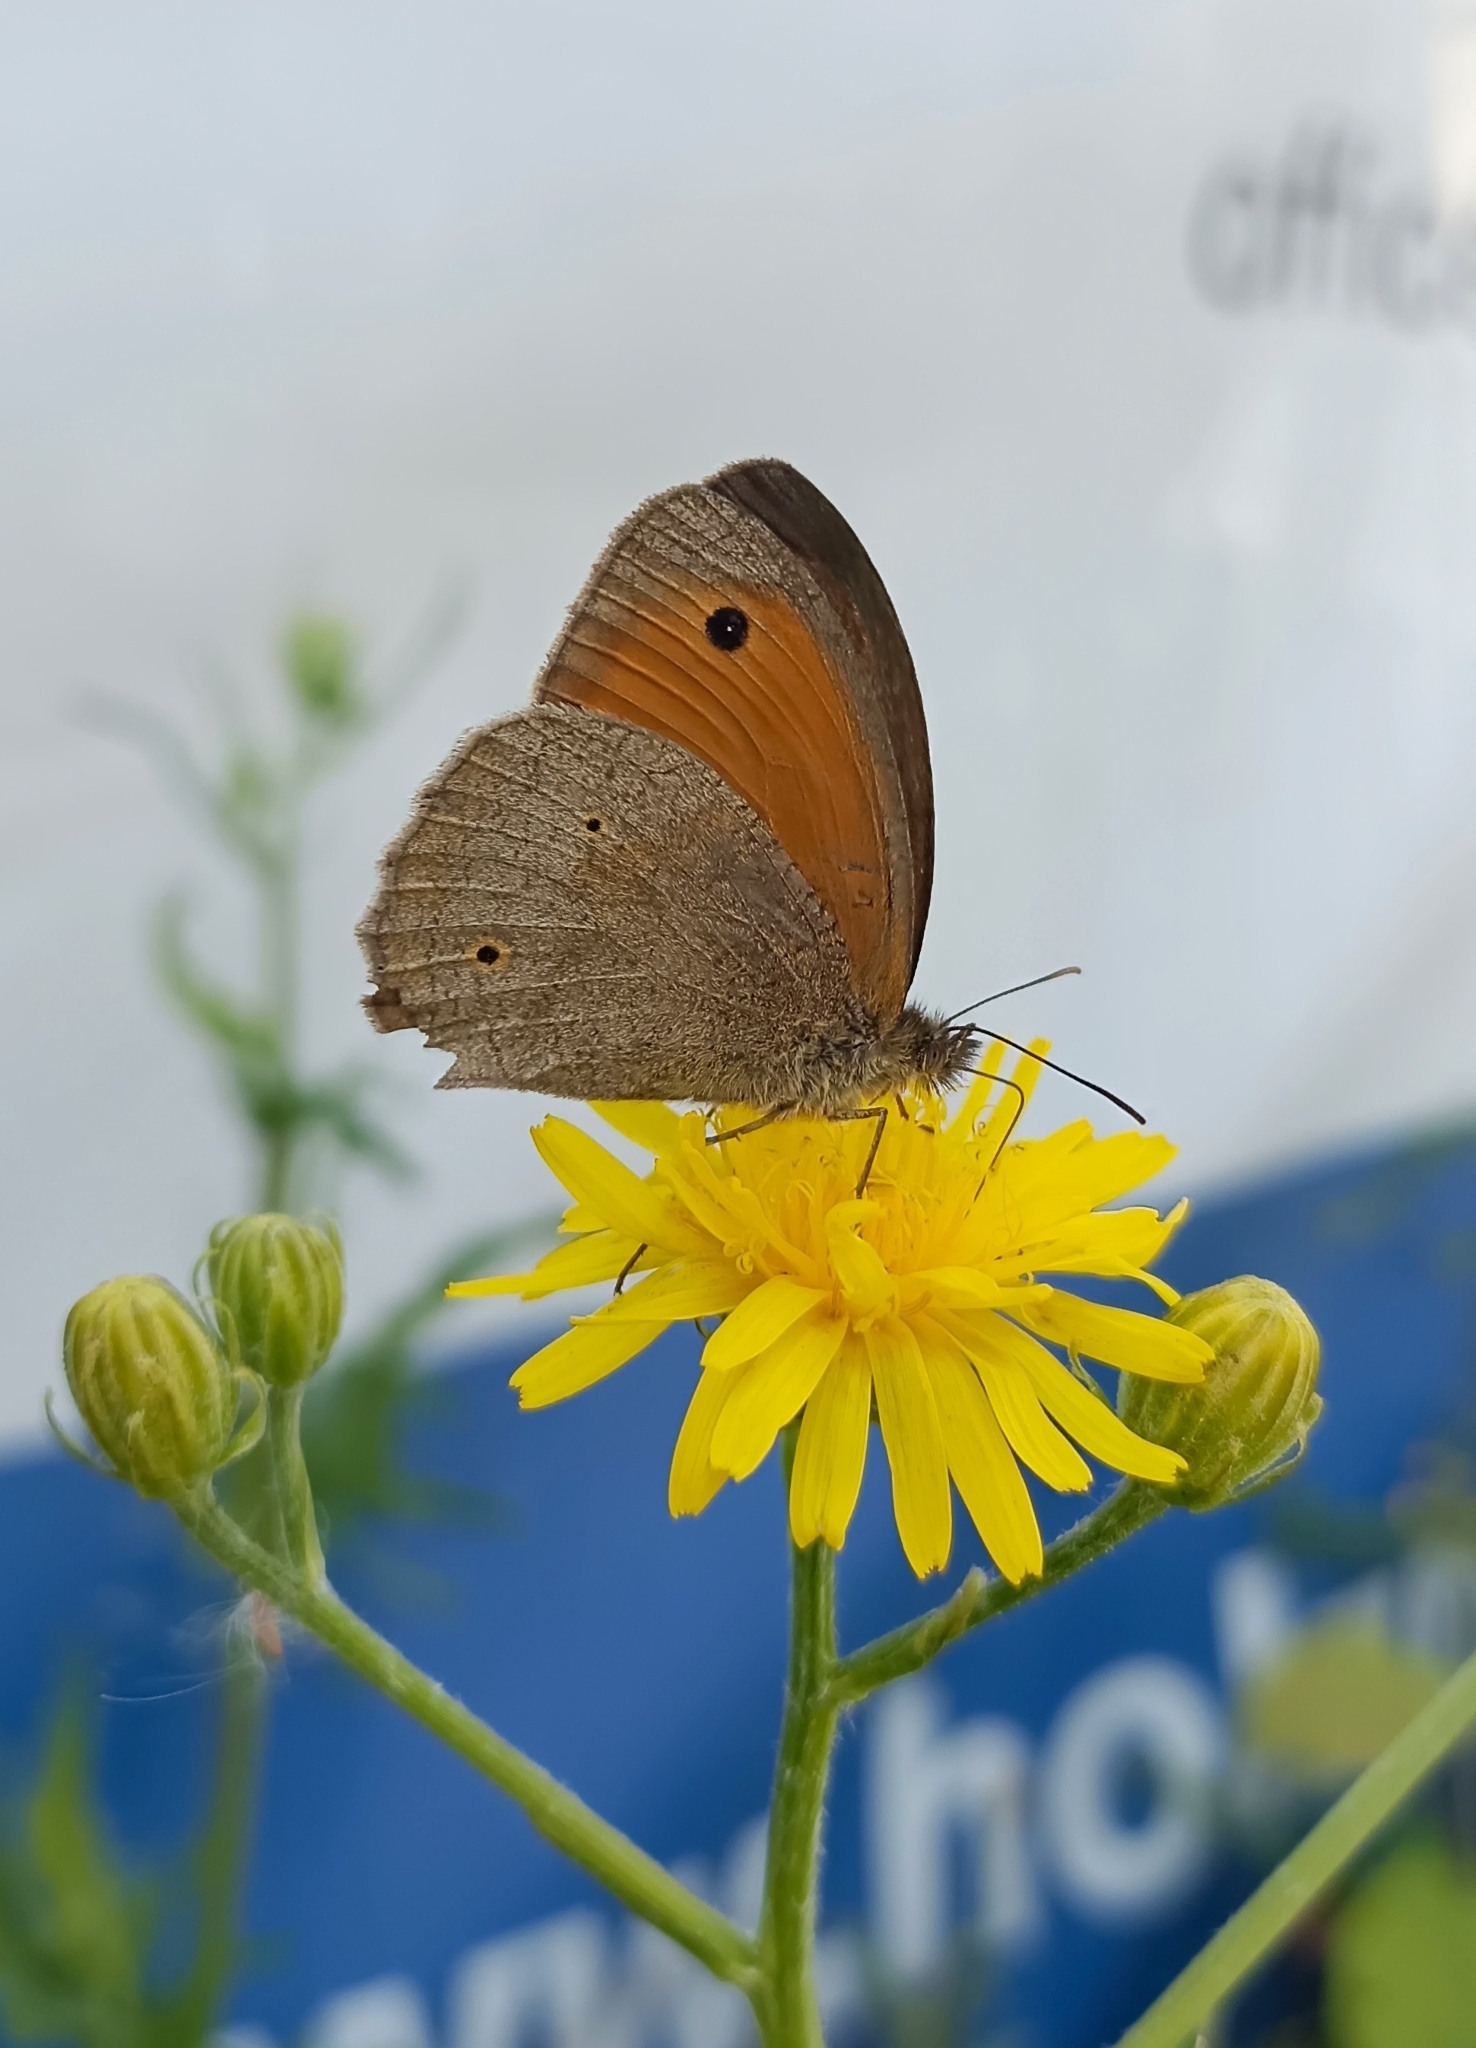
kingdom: Animalia
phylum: Arthropoda
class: Insecta
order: Lepidoptera
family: Nymphalidae
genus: Maniola
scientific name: Maniola jurtina
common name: Meadow brown
